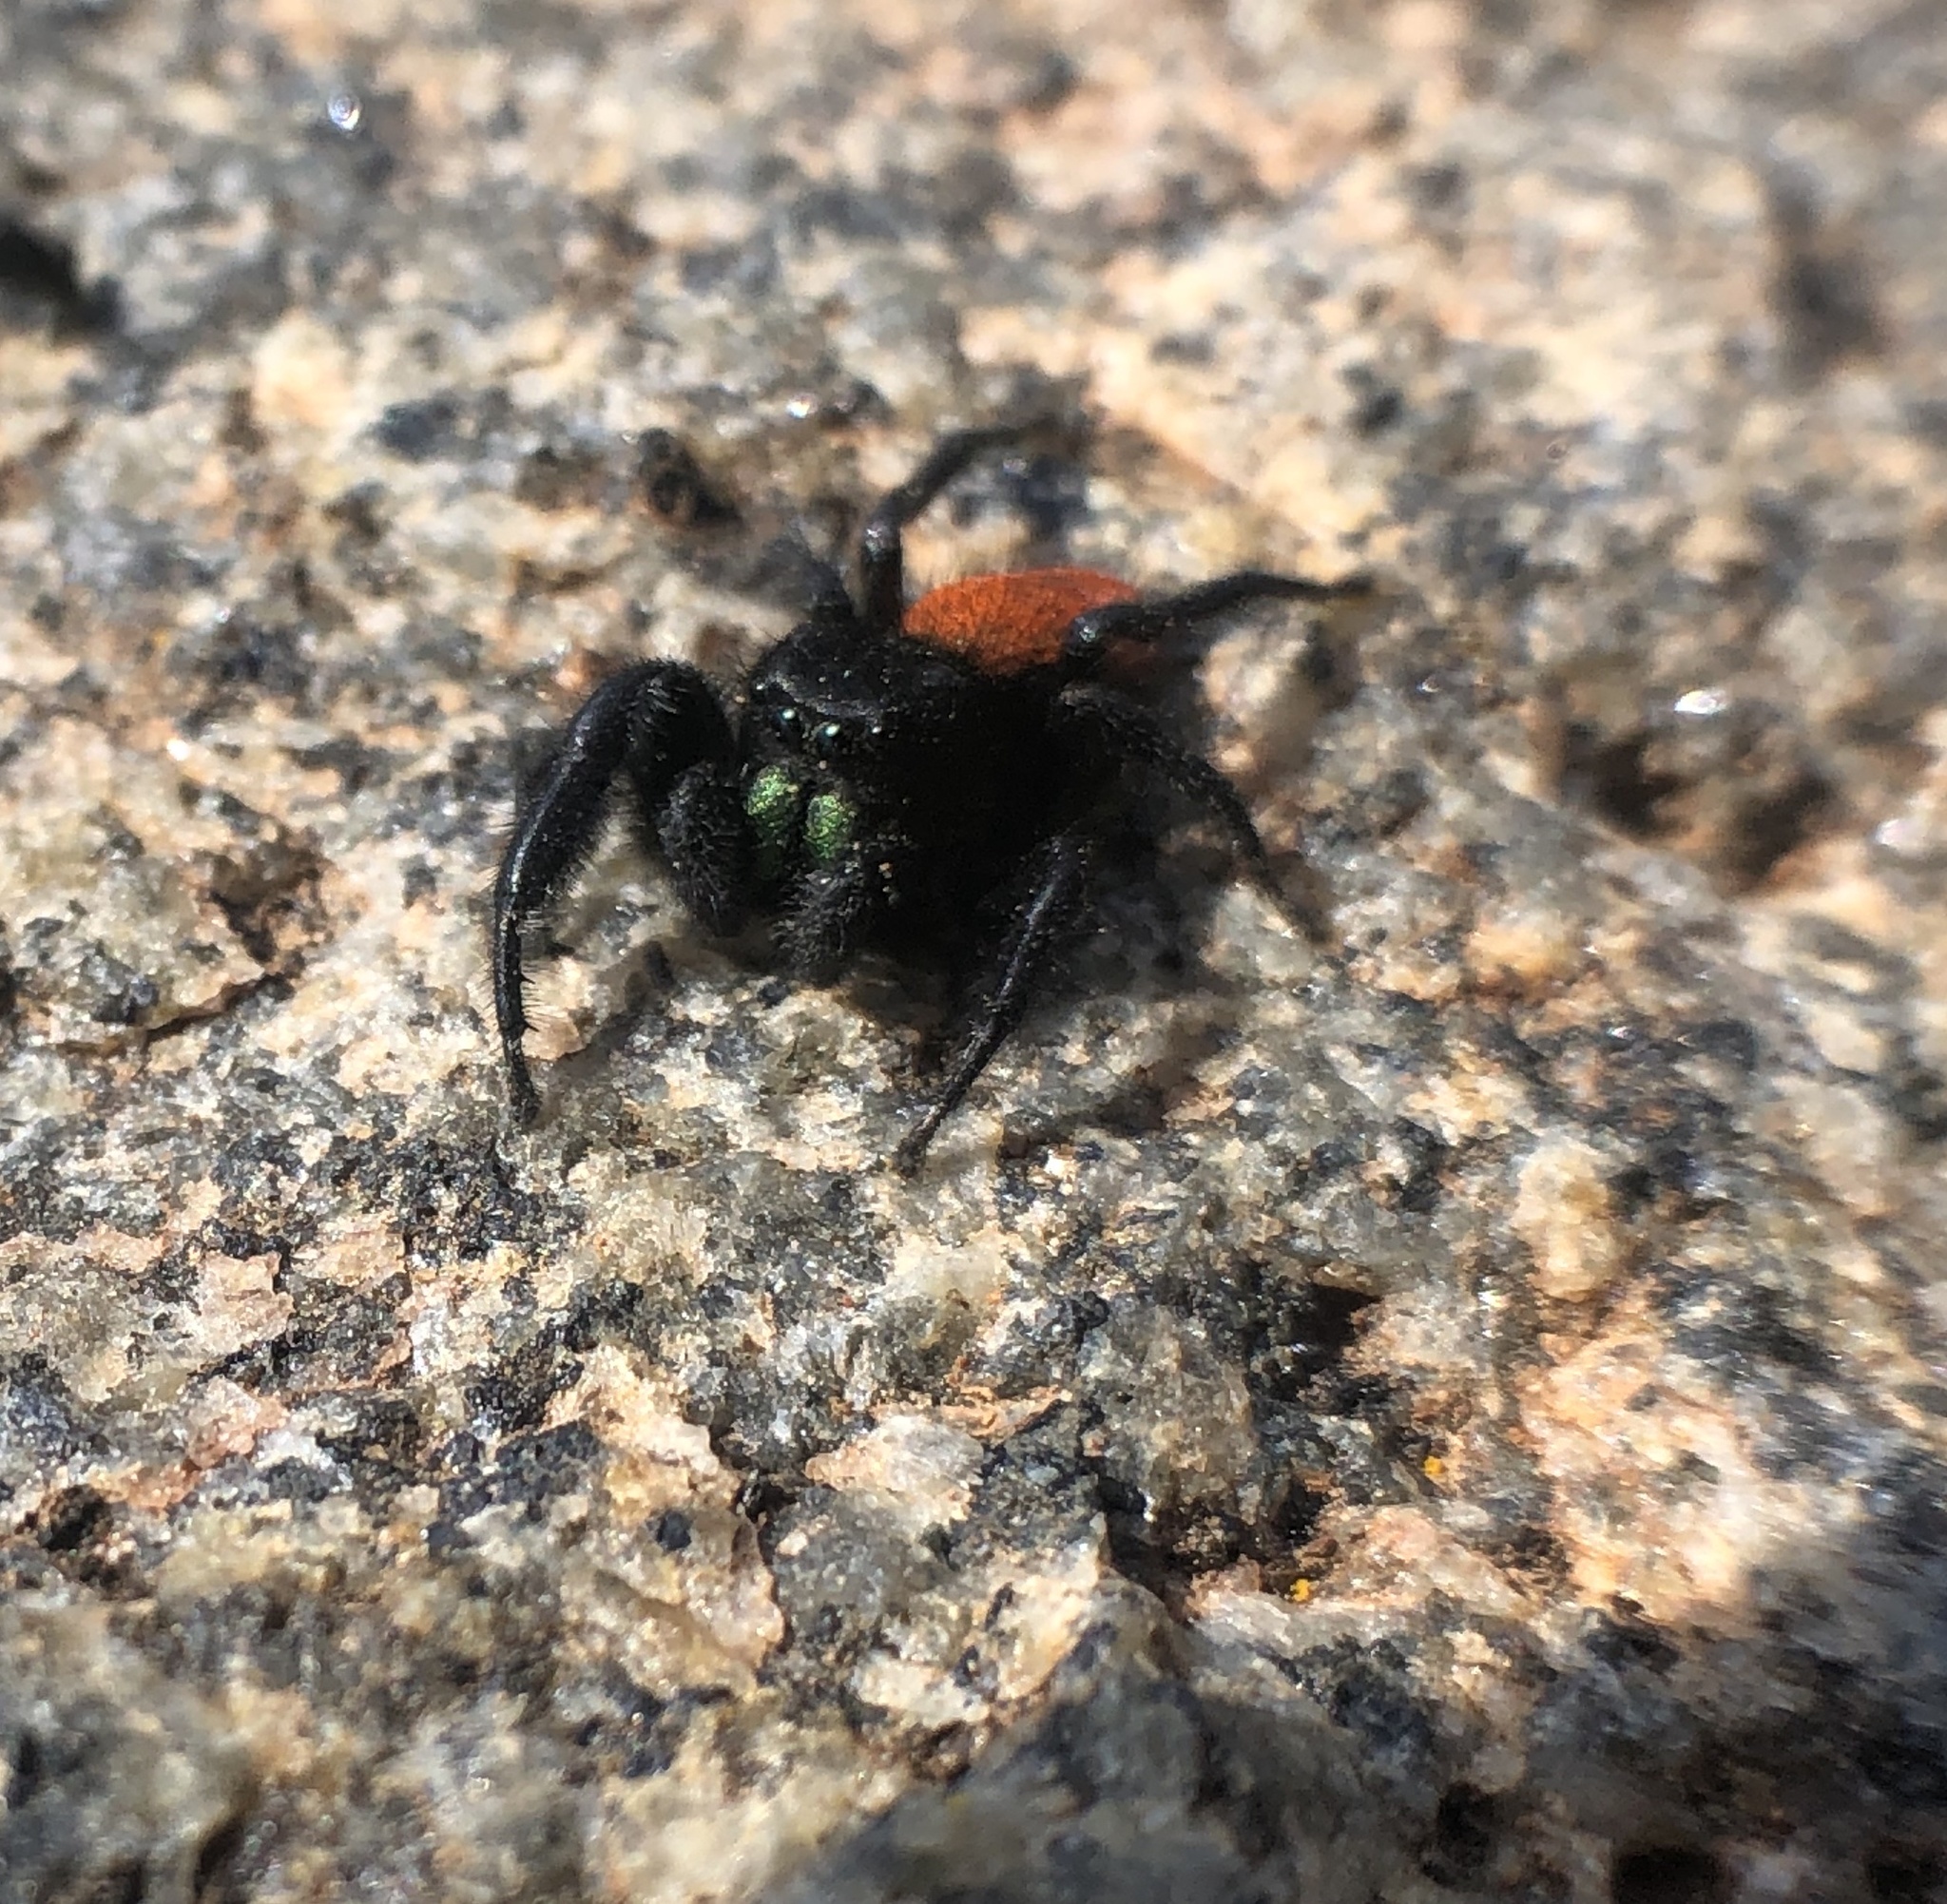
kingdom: Animalia
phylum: Arthropoda
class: Arachnida
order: Araneae
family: Salticidae
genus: Phidippus
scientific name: Phidippus johnsoni
